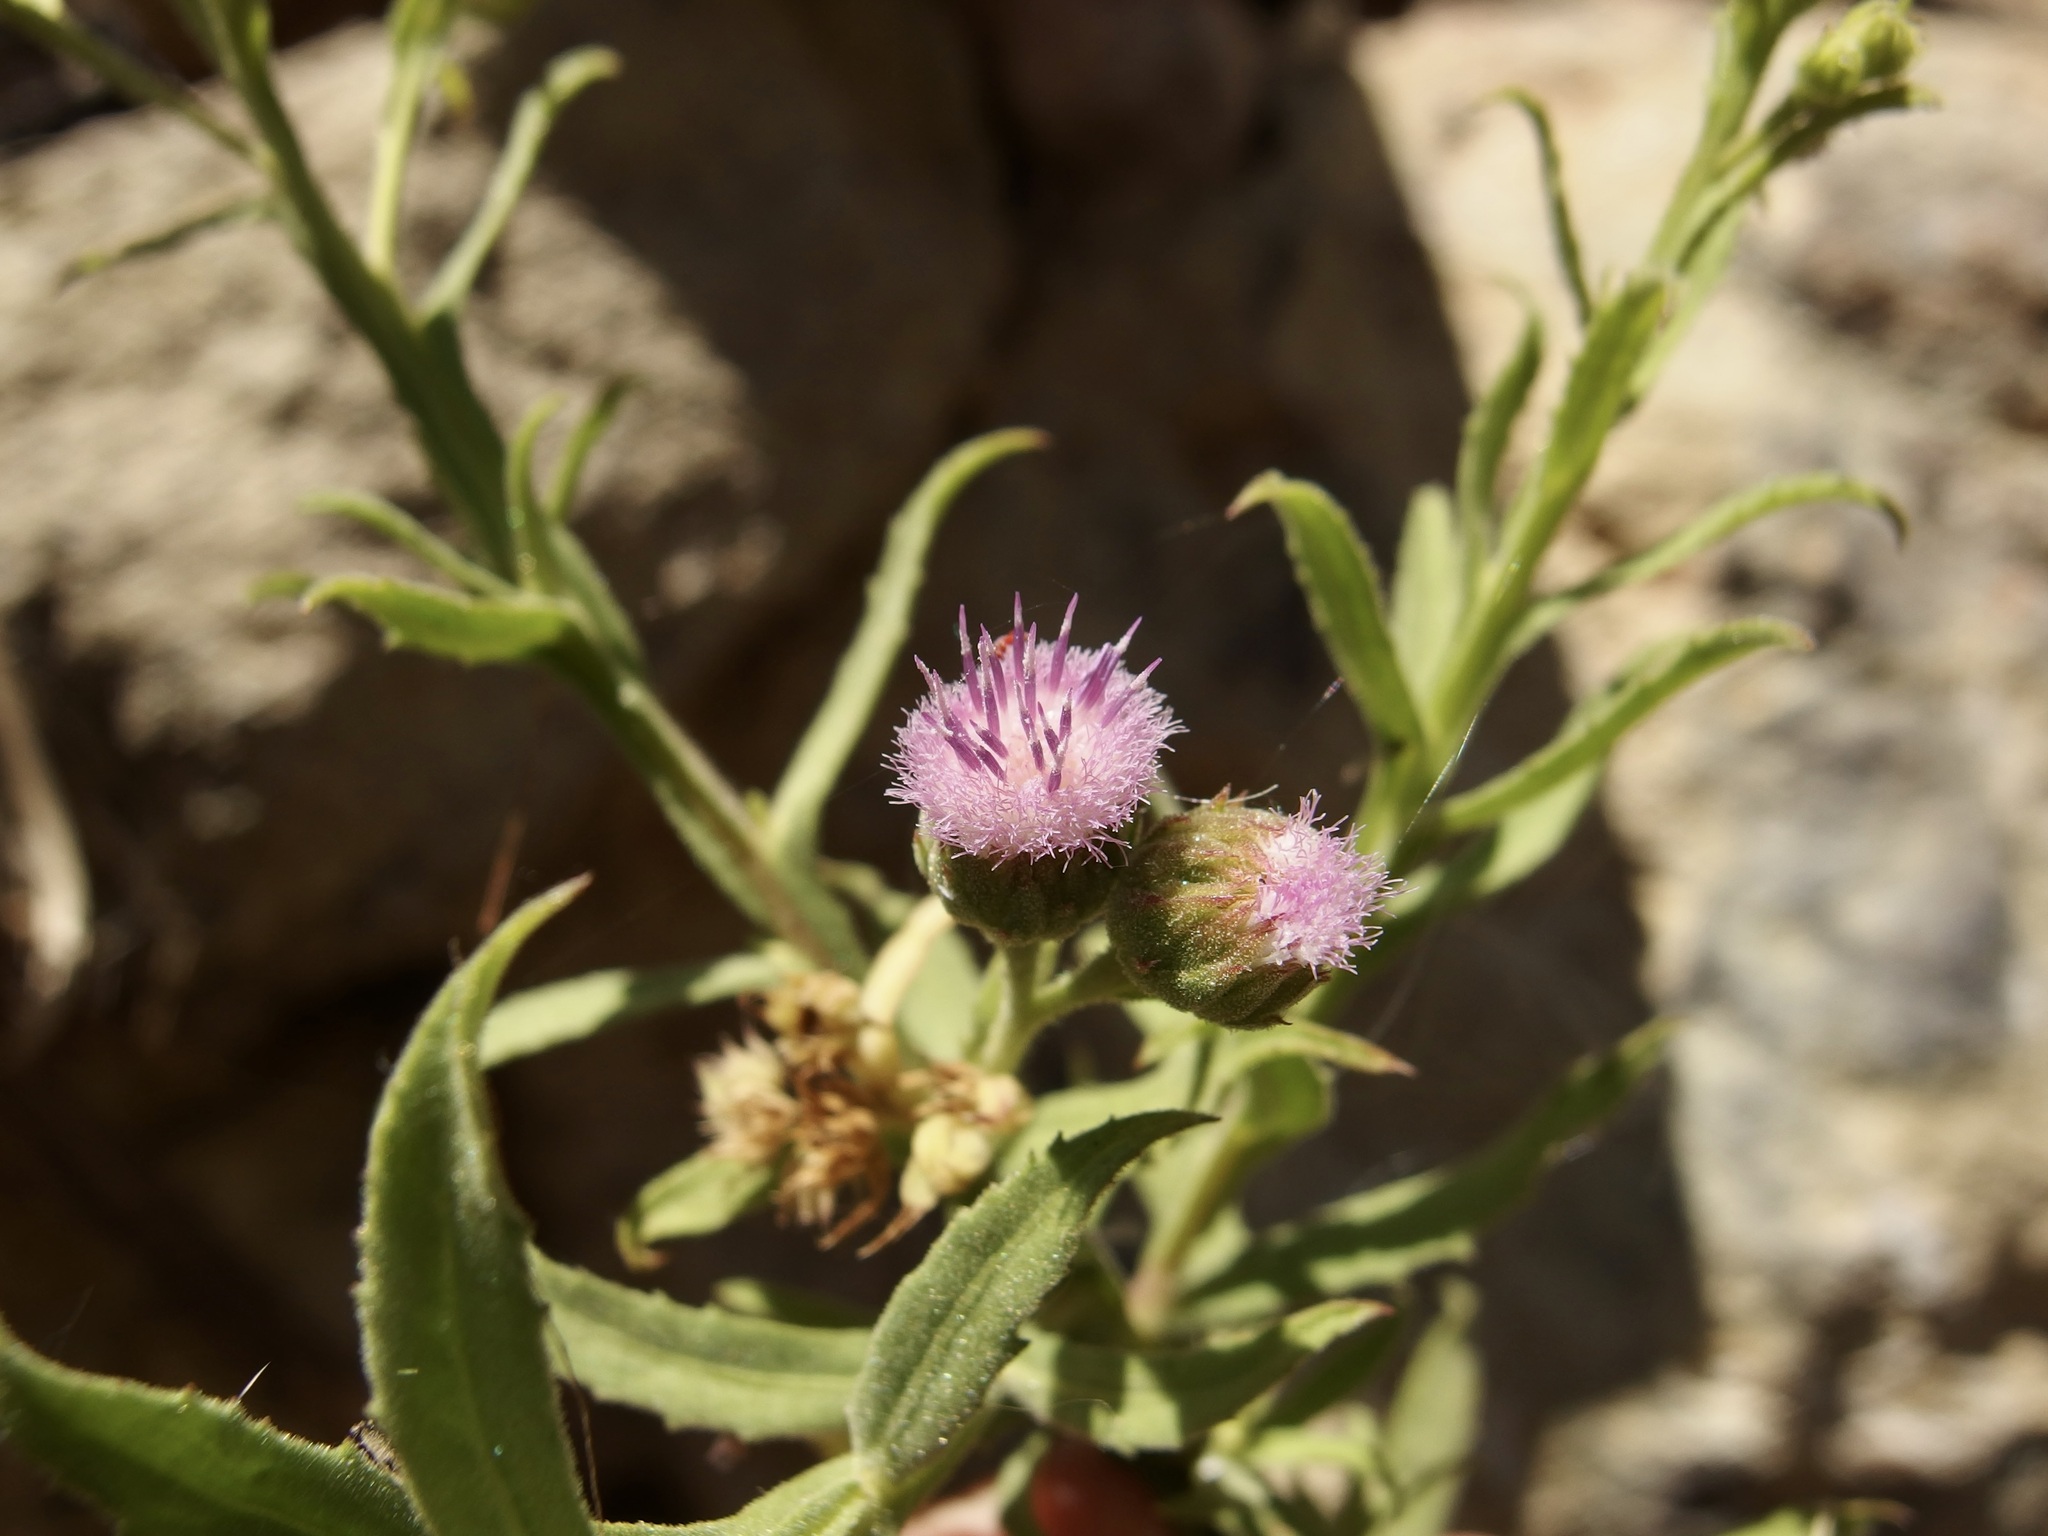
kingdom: Plantae
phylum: Tracheophyta
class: Magnoliopsida
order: Asterales
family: Asteraceae
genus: Pluchea
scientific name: Pluchea salicifolia
